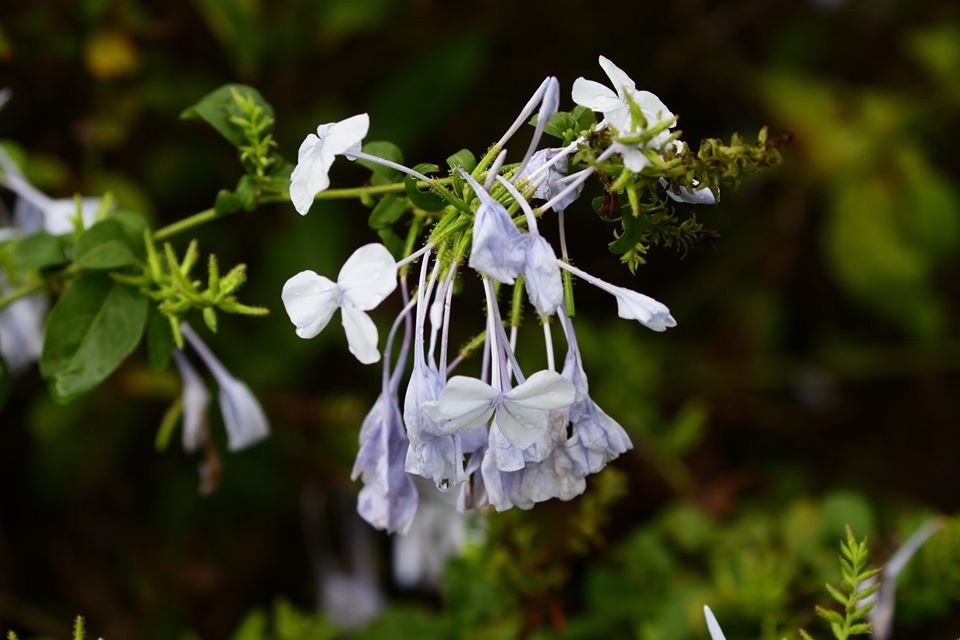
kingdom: Plantae
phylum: Tracheophyta
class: Magnoliopsida
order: Caryophyllales
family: Plumbaginaceae
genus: Plumbago
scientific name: Plumbago auriculata
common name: Cape leadwort
